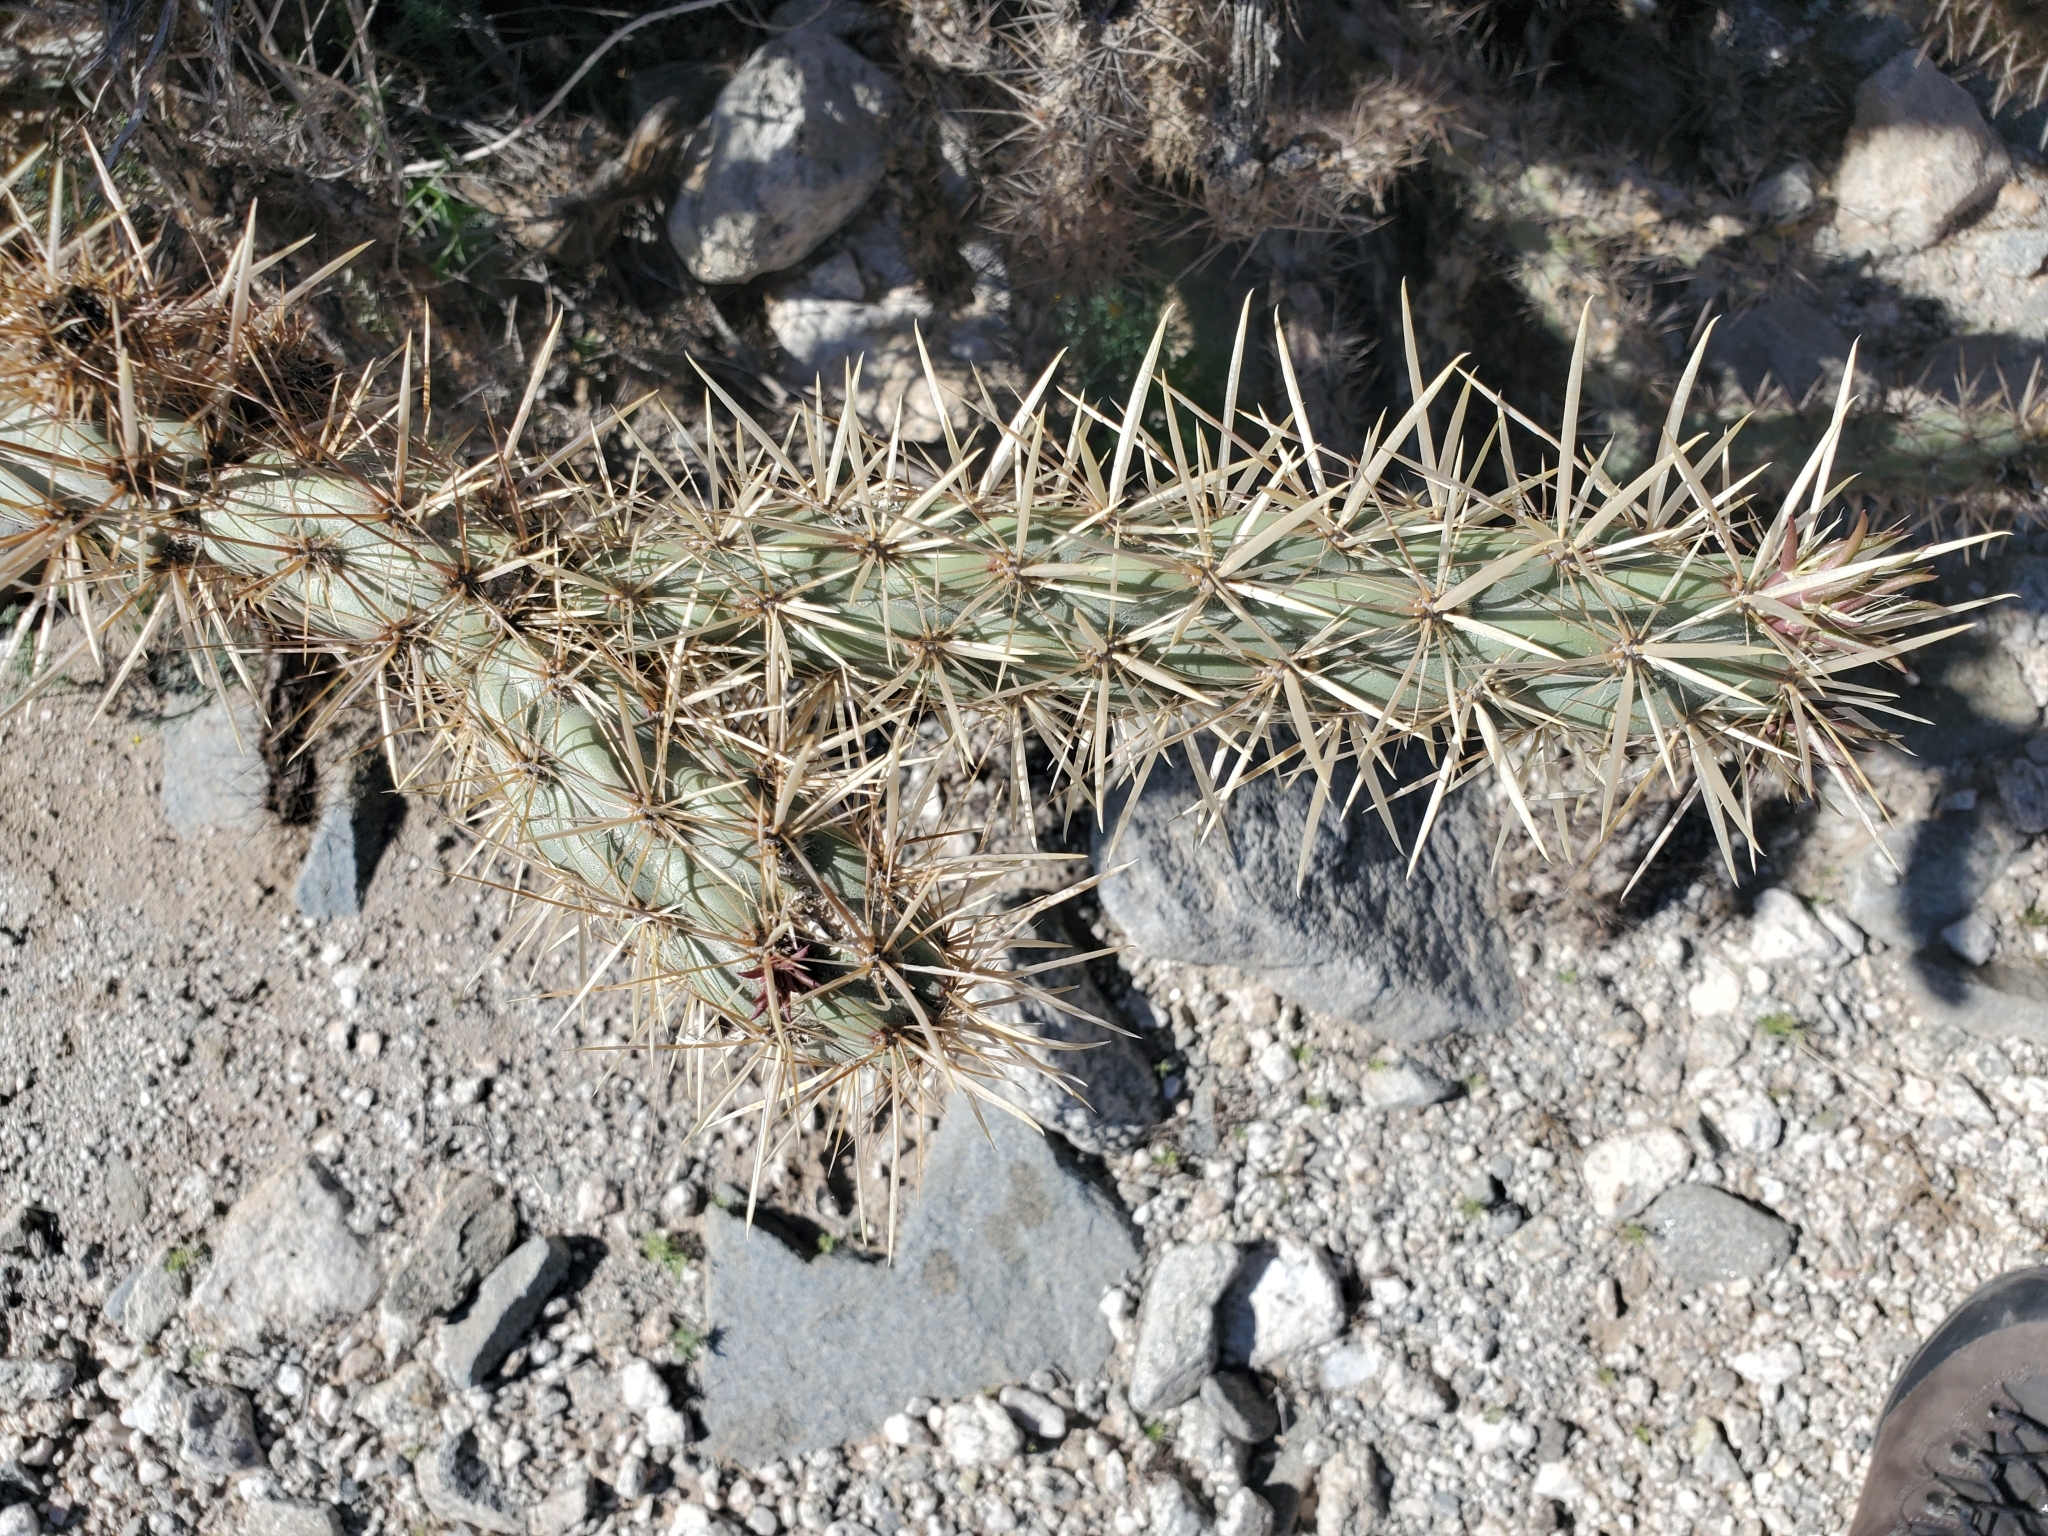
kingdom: Plantae
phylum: Tracheophyta
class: Magnoliopsida
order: Caryophyllales
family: Cactaceae
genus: Cylindropuntia
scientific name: Cylindropuntia acanthocarpa
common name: Buckhorn cholla
